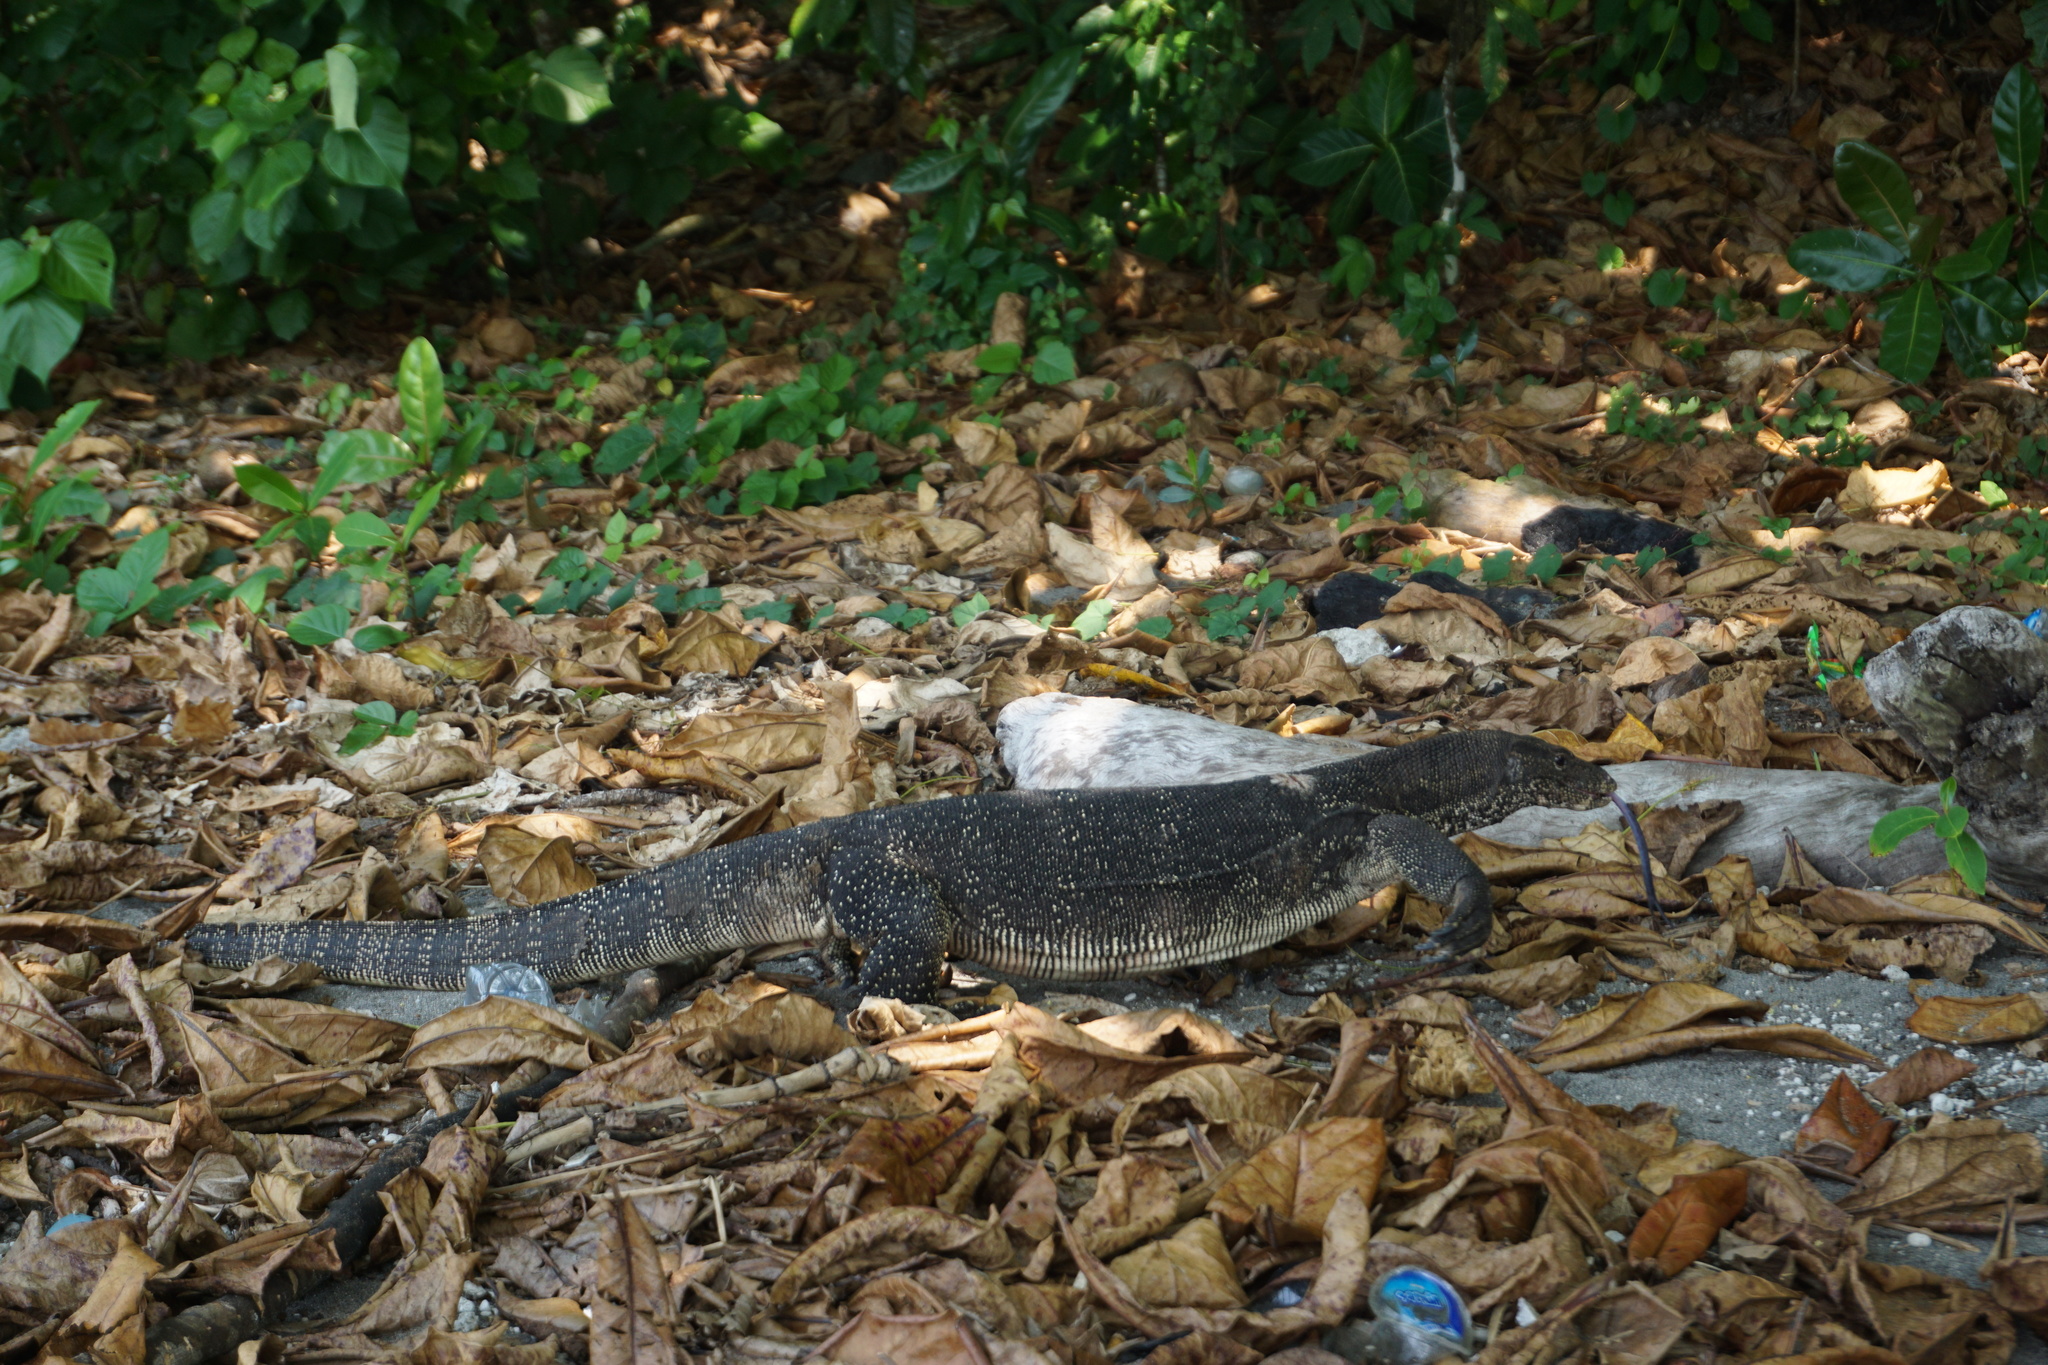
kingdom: Animalia
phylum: Chordata
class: Squamata
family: Varanidae
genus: Varanus
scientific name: Varanus salvator
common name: Common water monitor
